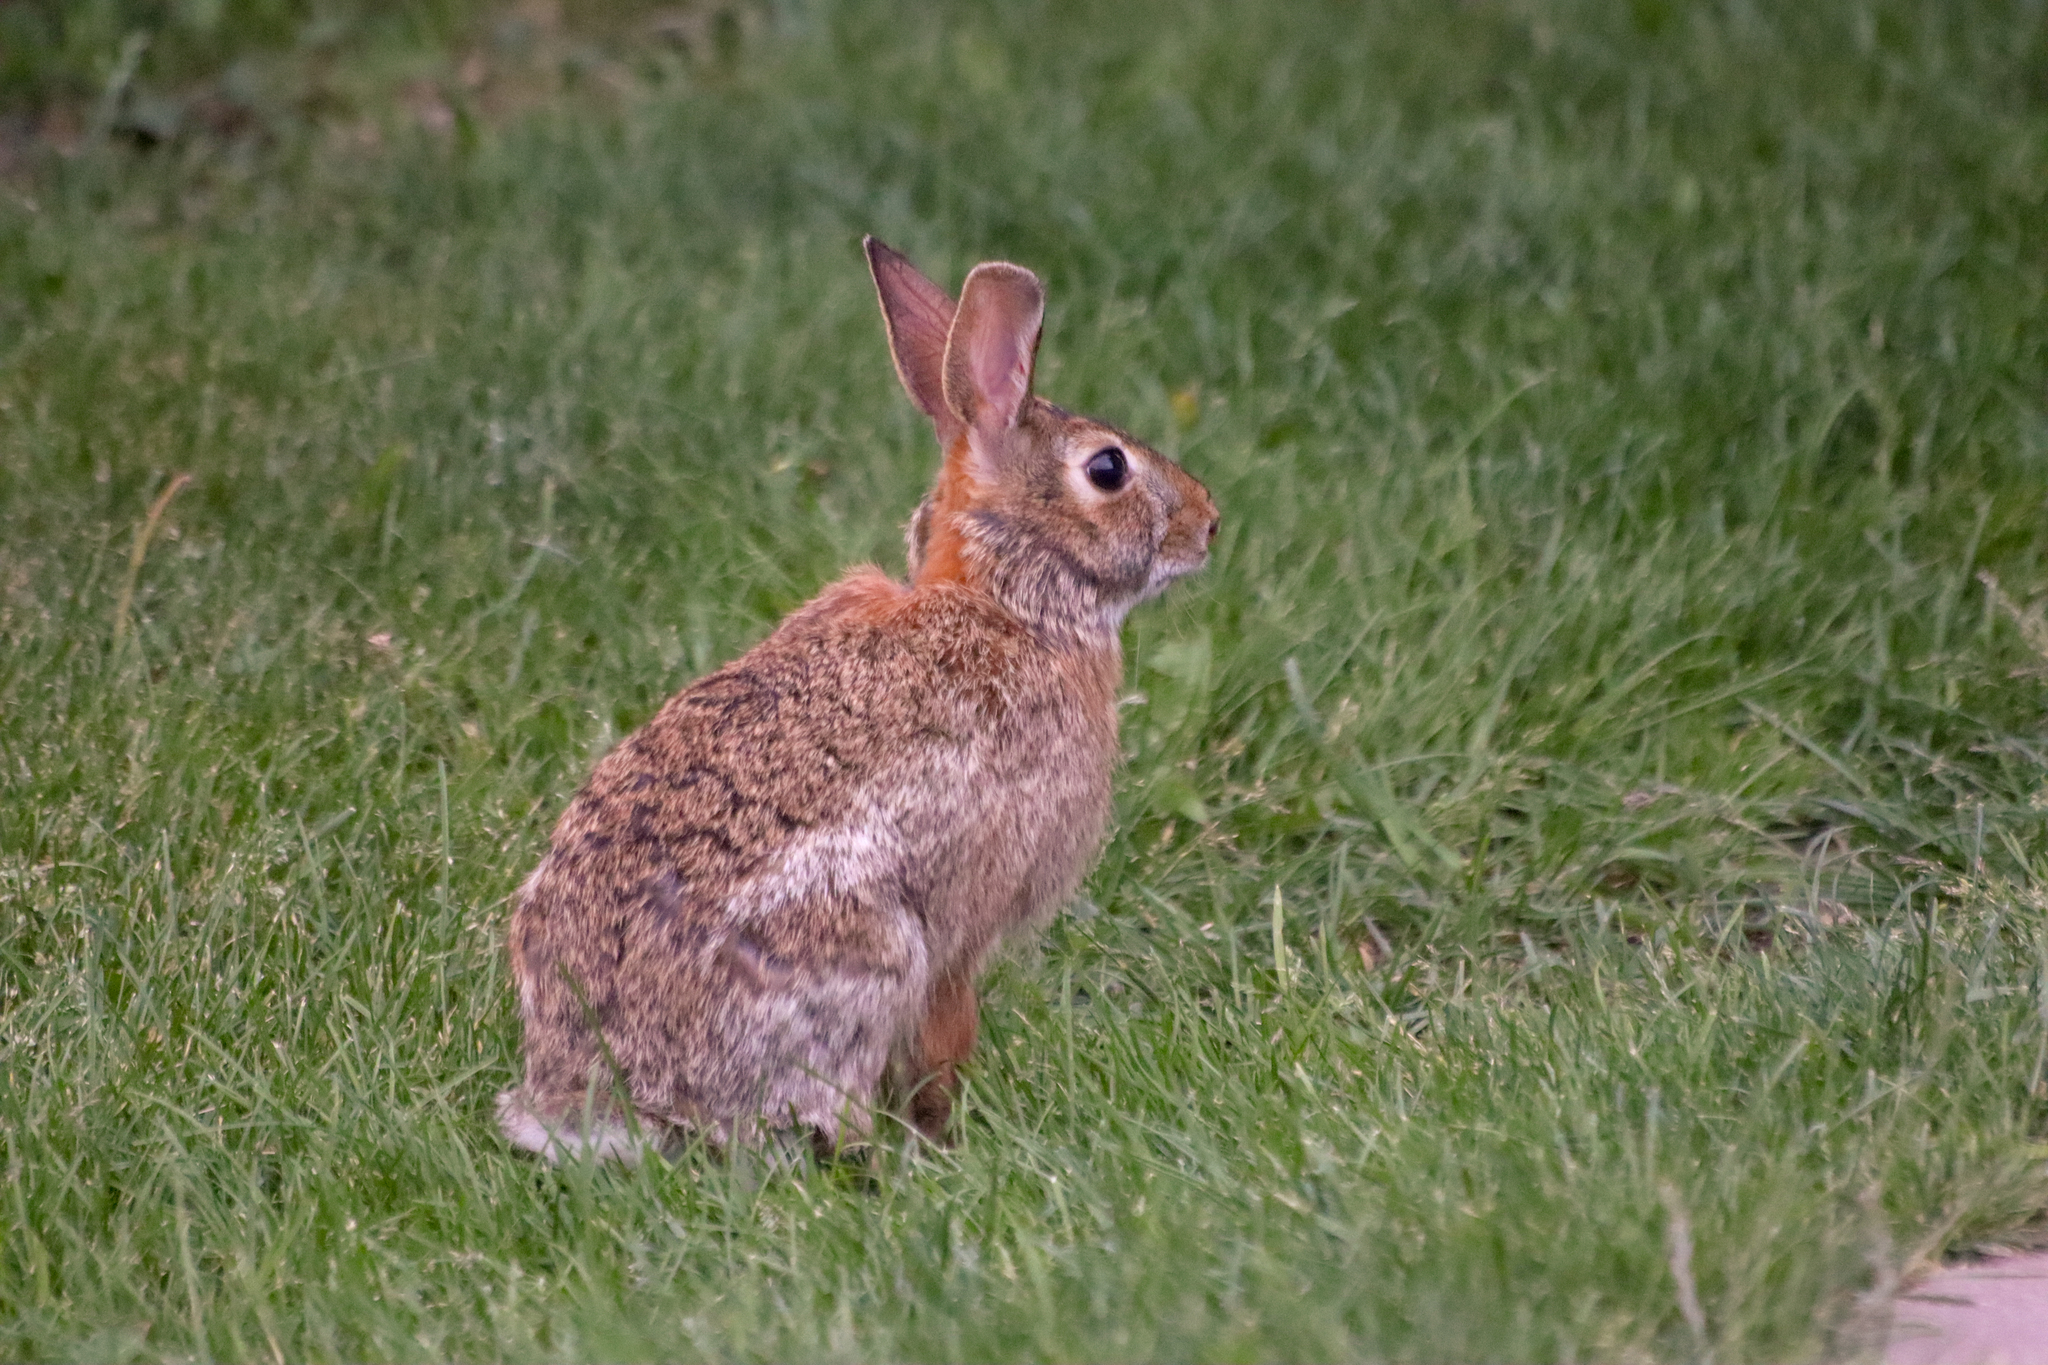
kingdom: Animalia
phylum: Chordata
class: Mammalia
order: Lagomorpha
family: Leporidae
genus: Sylvilagus
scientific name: Sylvilagus floridanus
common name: Eastern cottontail
